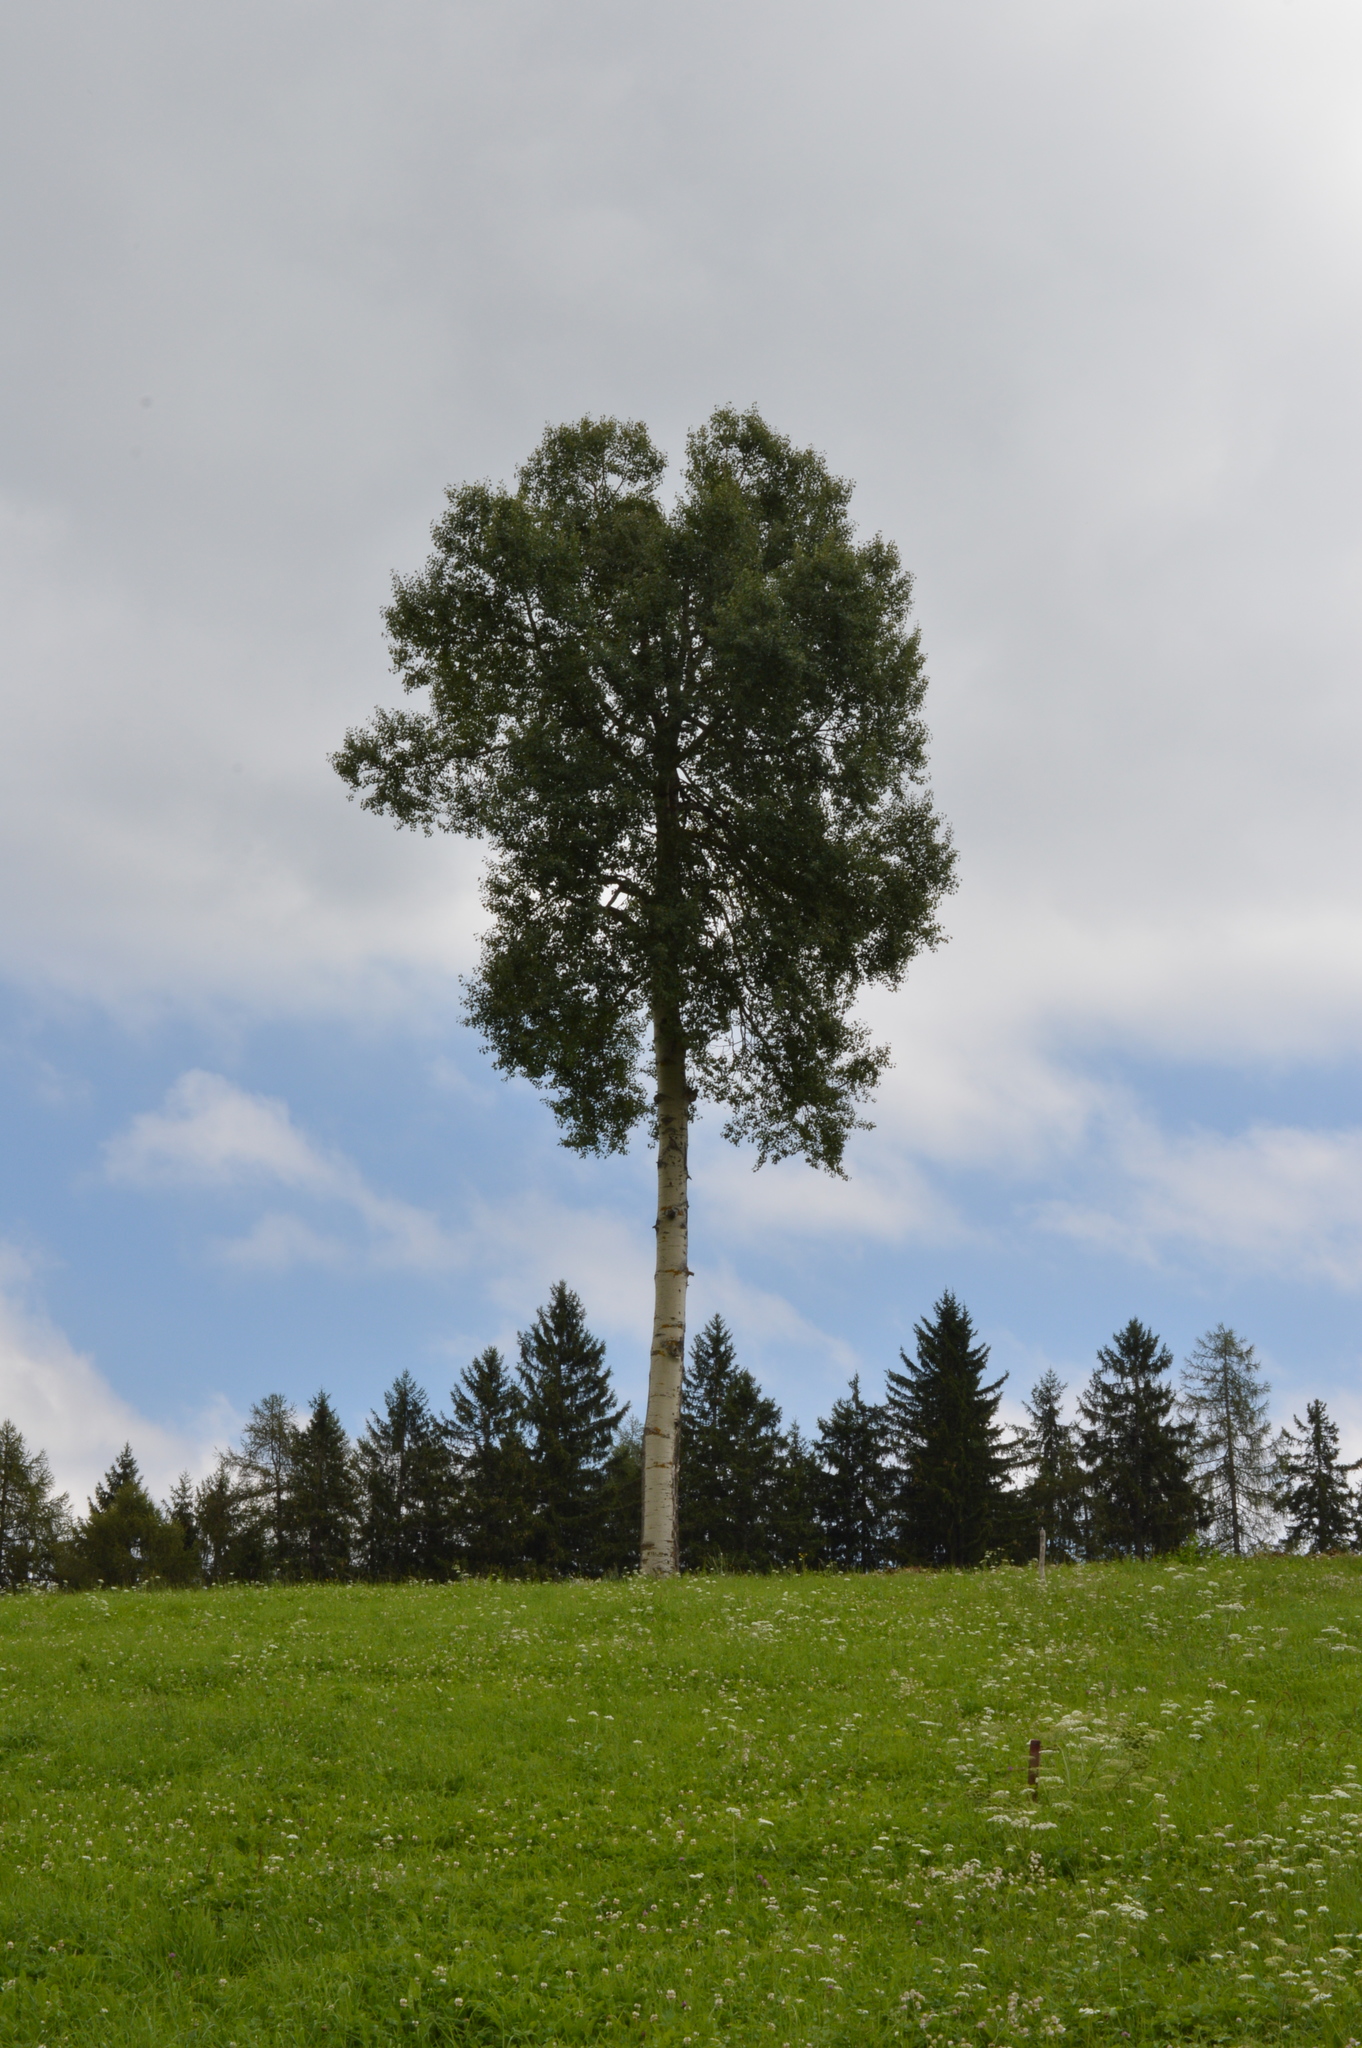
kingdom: Plantae
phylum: Tracheophyta
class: Magnoliopsida
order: Fagales
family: Betulaceae
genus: Betula
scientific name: Betula pendula
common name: Silver birch
